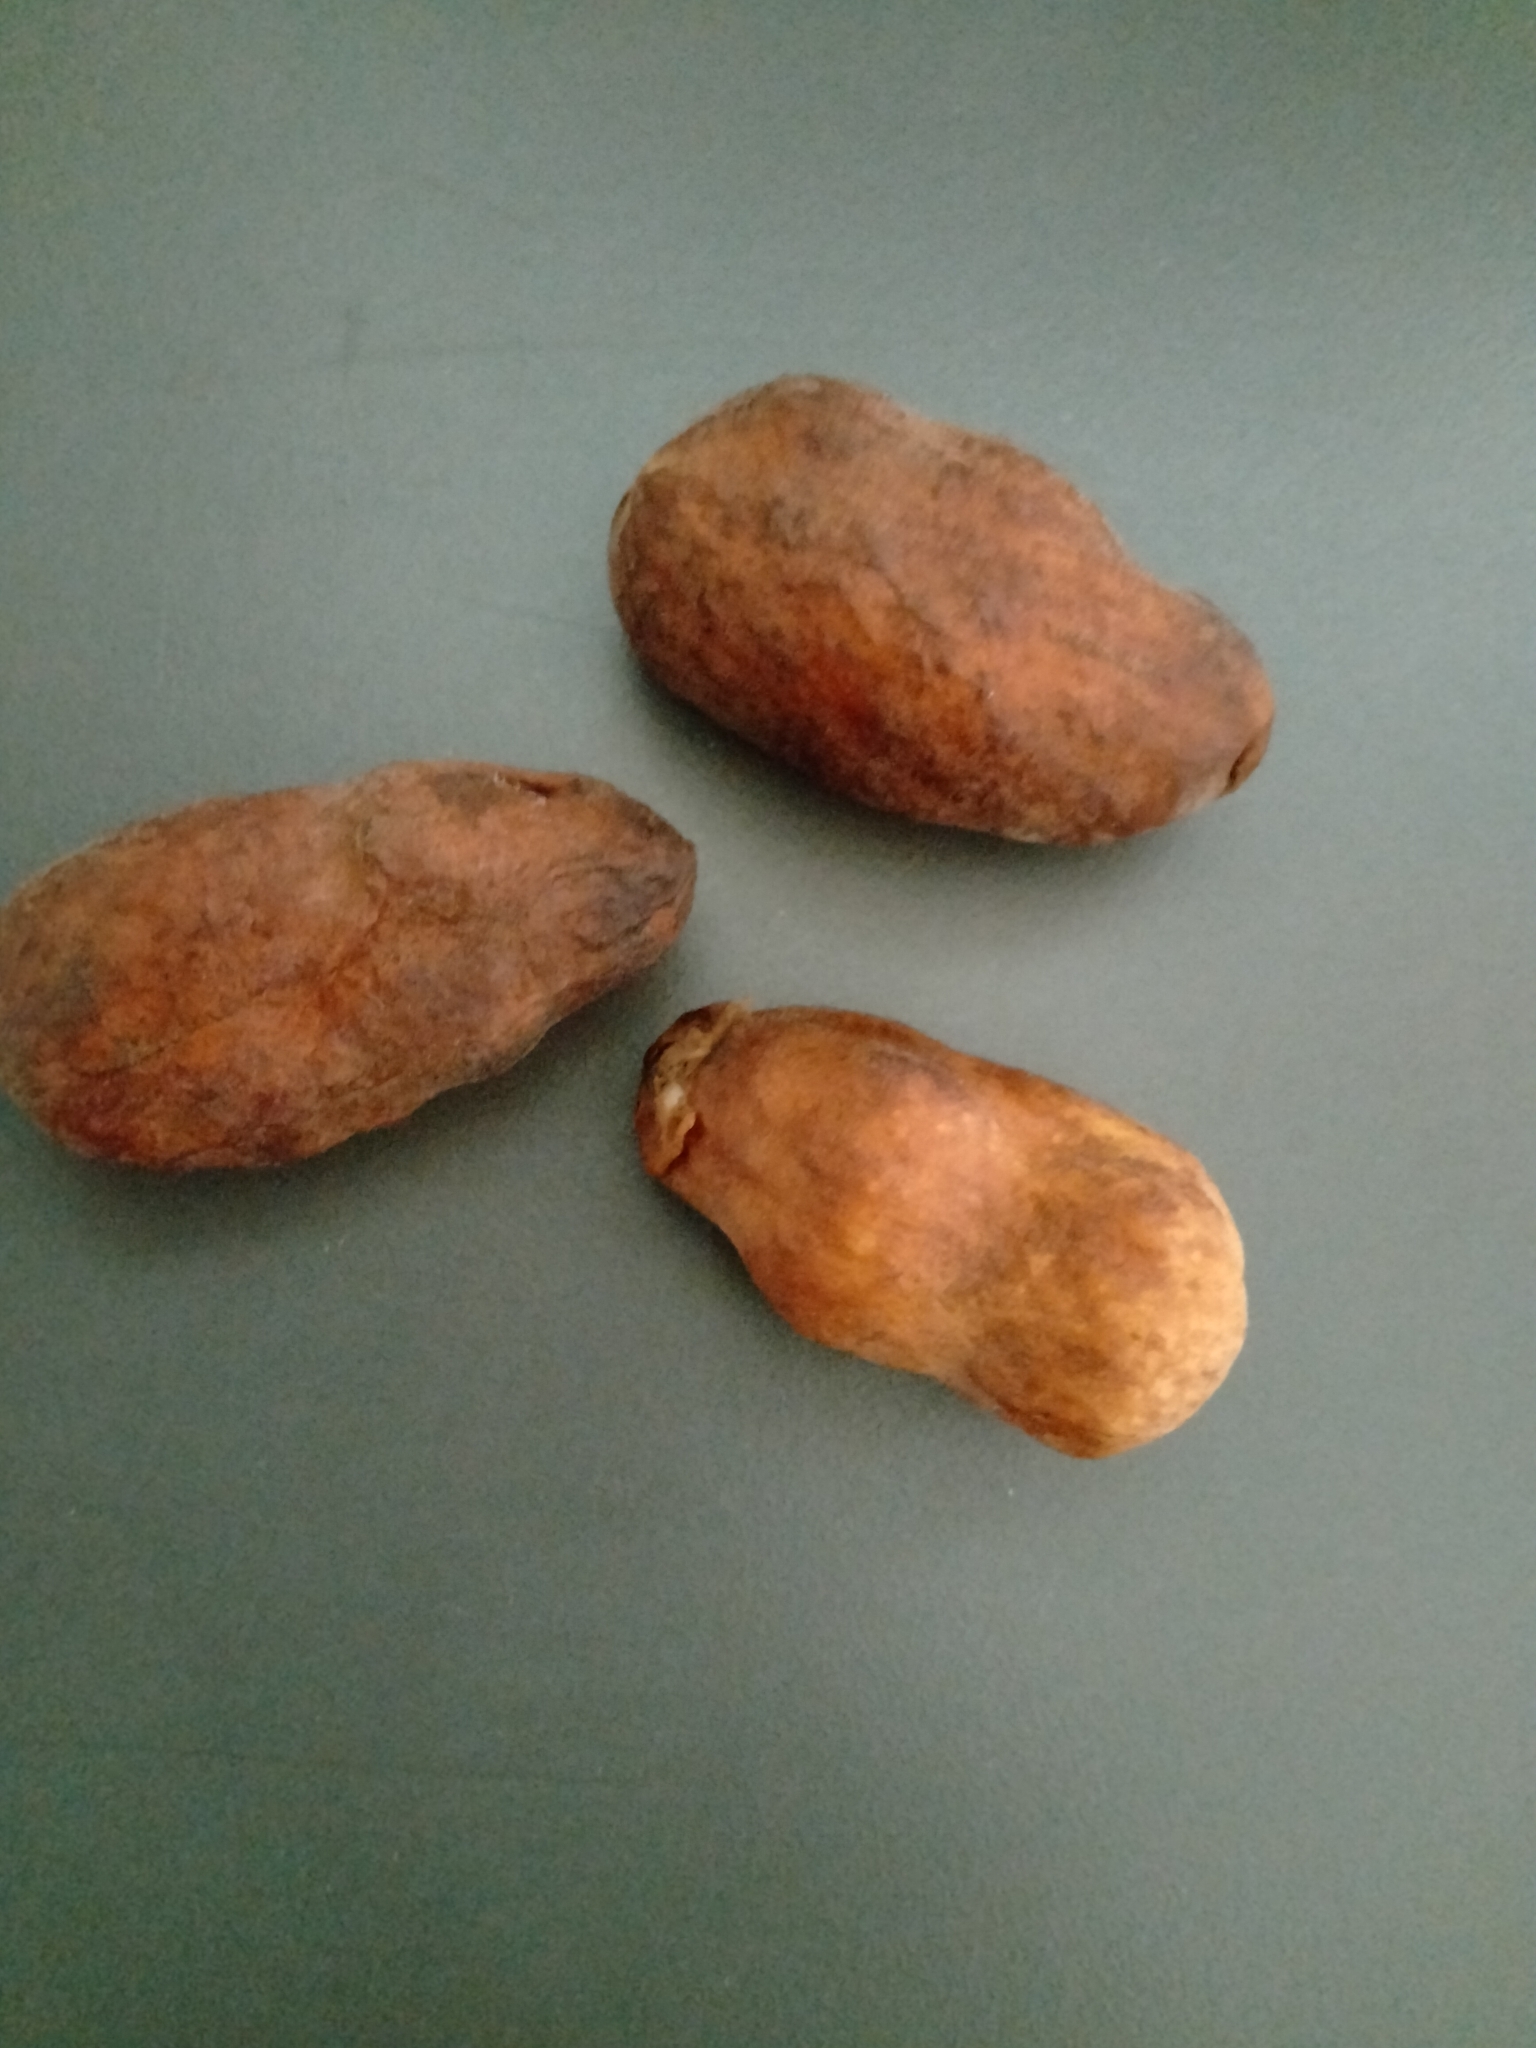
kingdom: Plantae
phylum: Tracheophyta
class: Magnoliopsida
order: Magnoliales
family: Annonaceae
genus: Uvariopsis
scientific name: Uvariopsis tripetala
